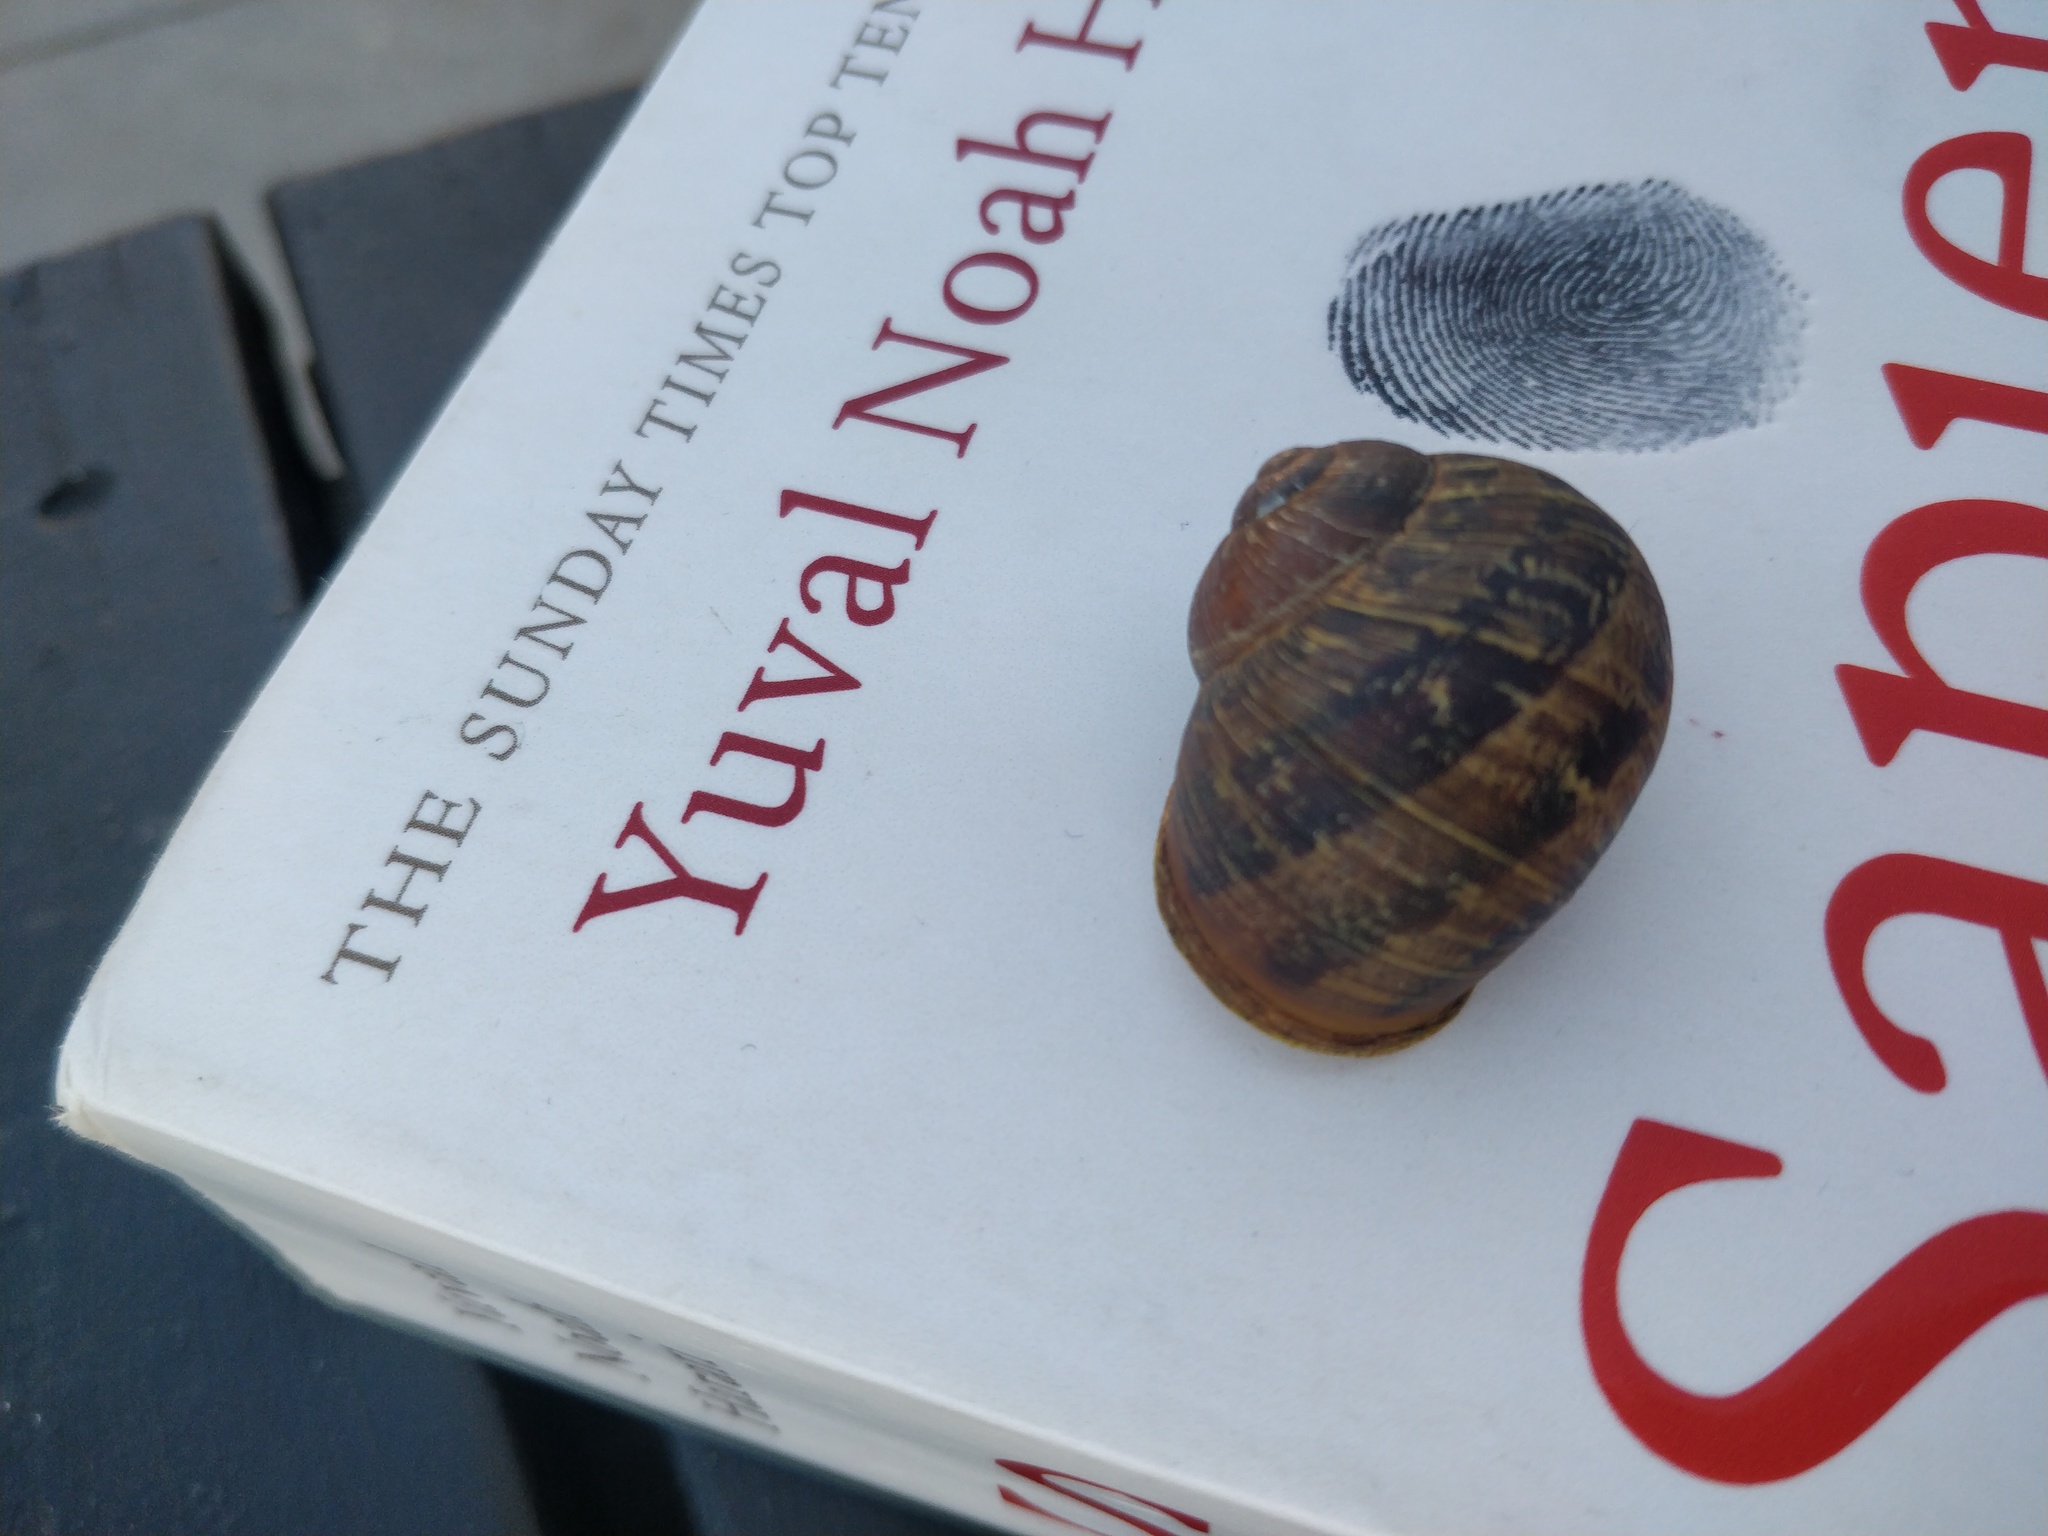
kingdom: Animalia
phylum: Mollusca
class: Gastropoda
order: Stylommatophora
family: Helicidae
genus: Cornu
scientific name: Cornu aspersum
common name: Brown garden snail
